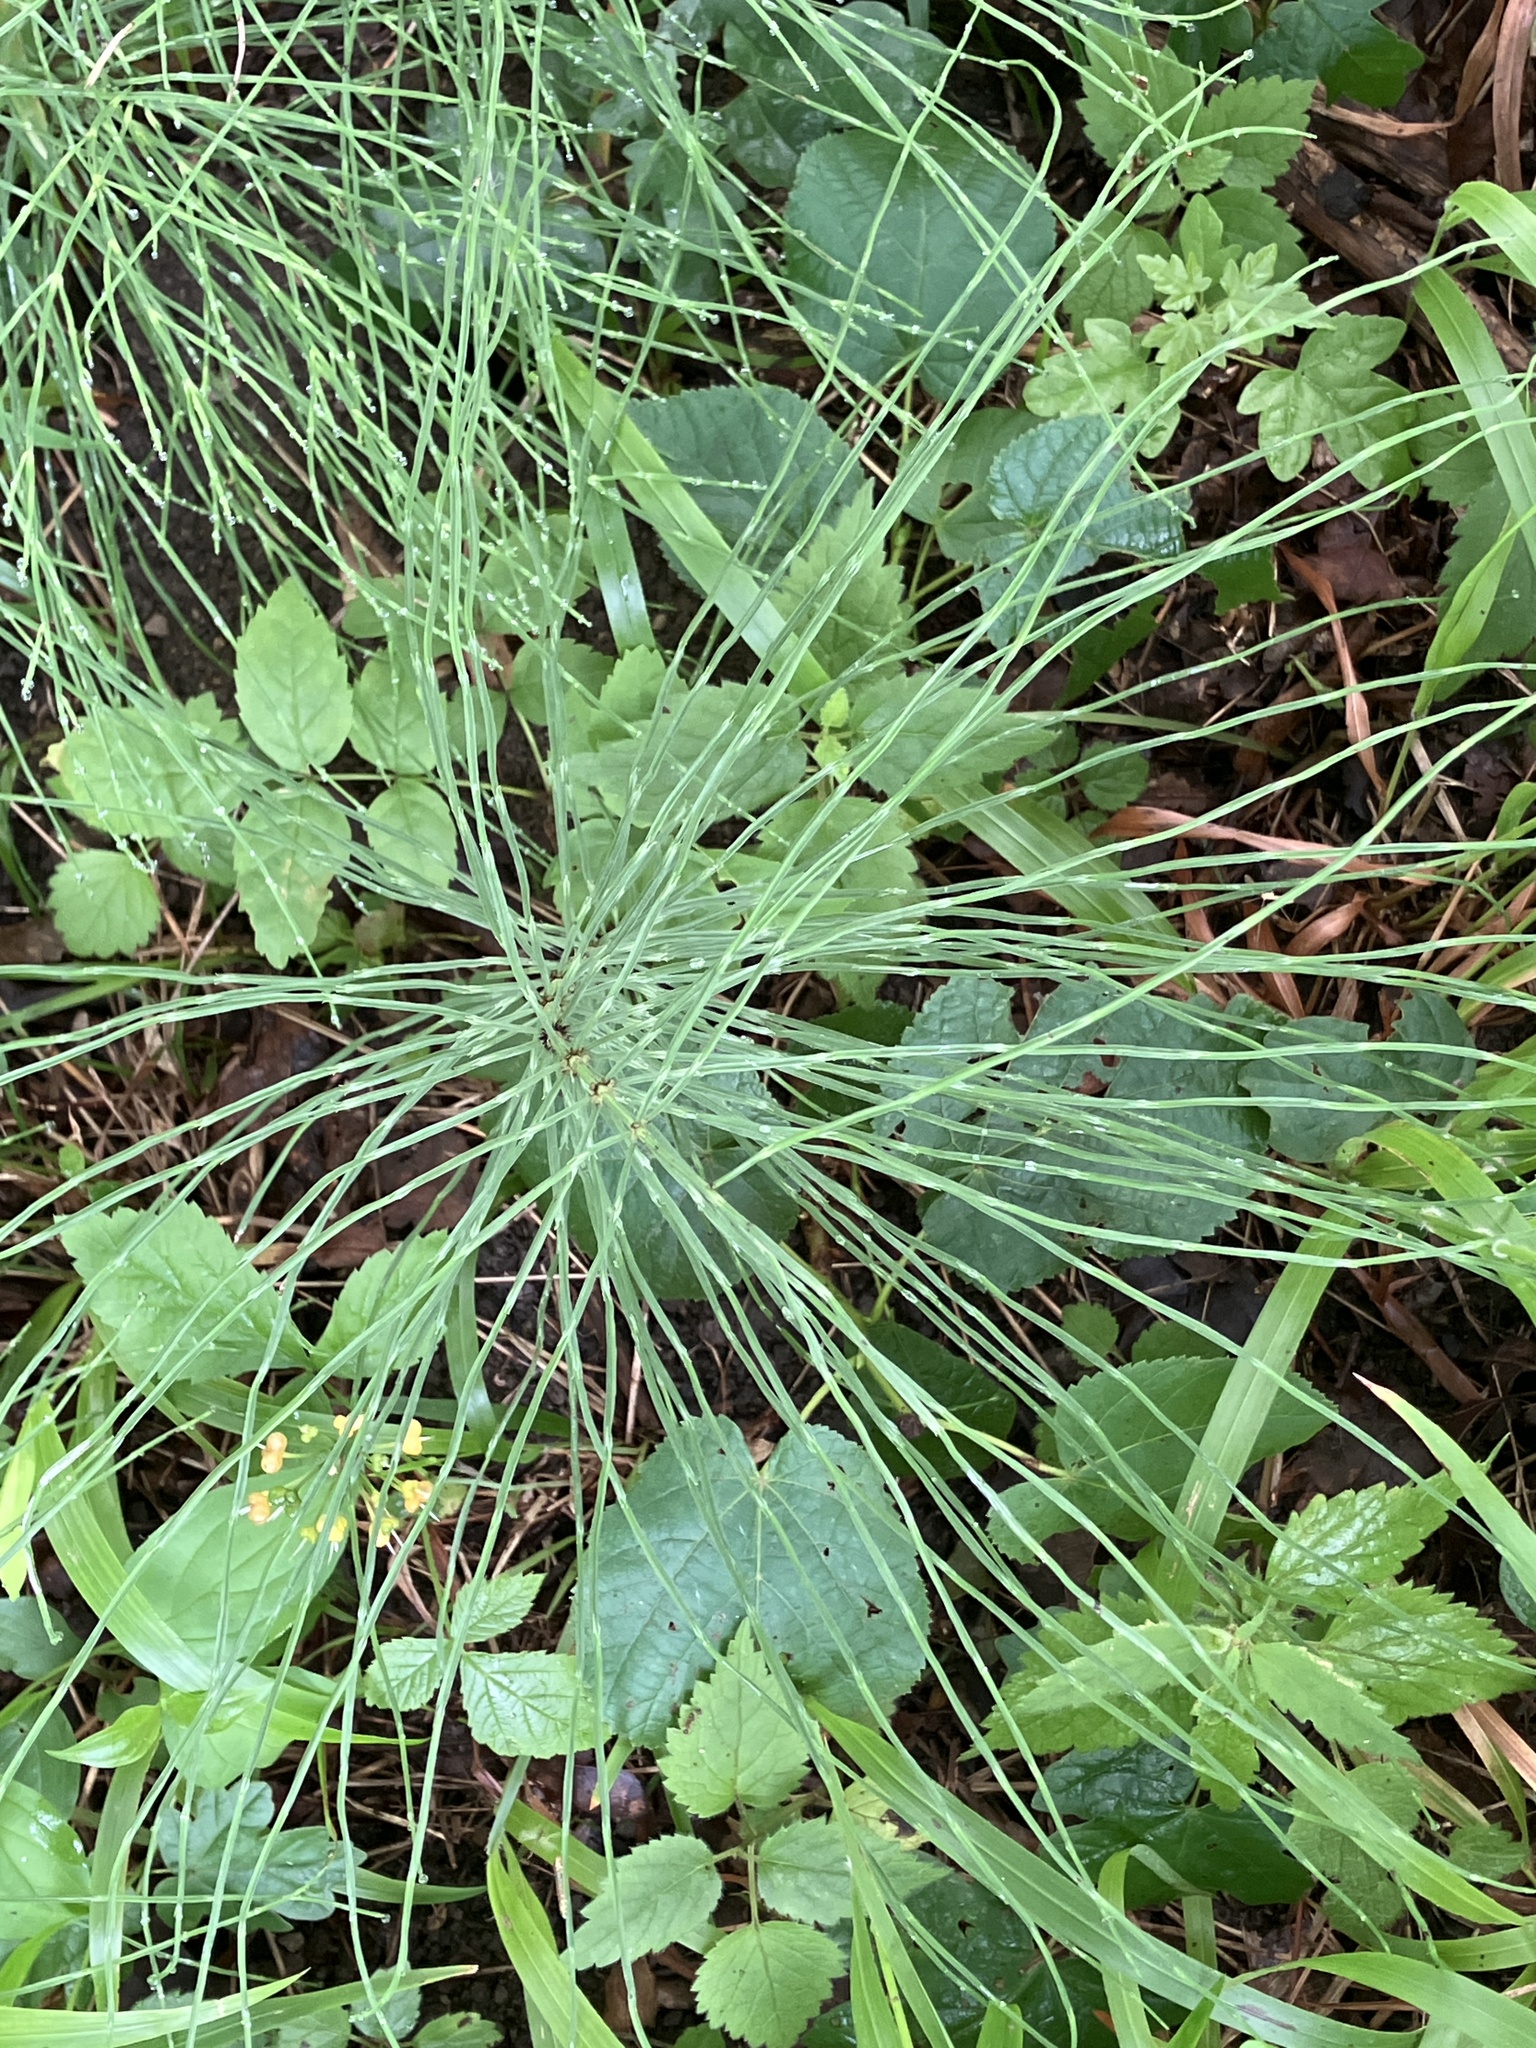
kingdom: Plantae
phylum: Tracheophyta
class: Polypodiopsida
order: Equisetales
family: Equisetaceae
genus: Equisetum
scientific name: Equisetum arvense
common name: Field horsetail
